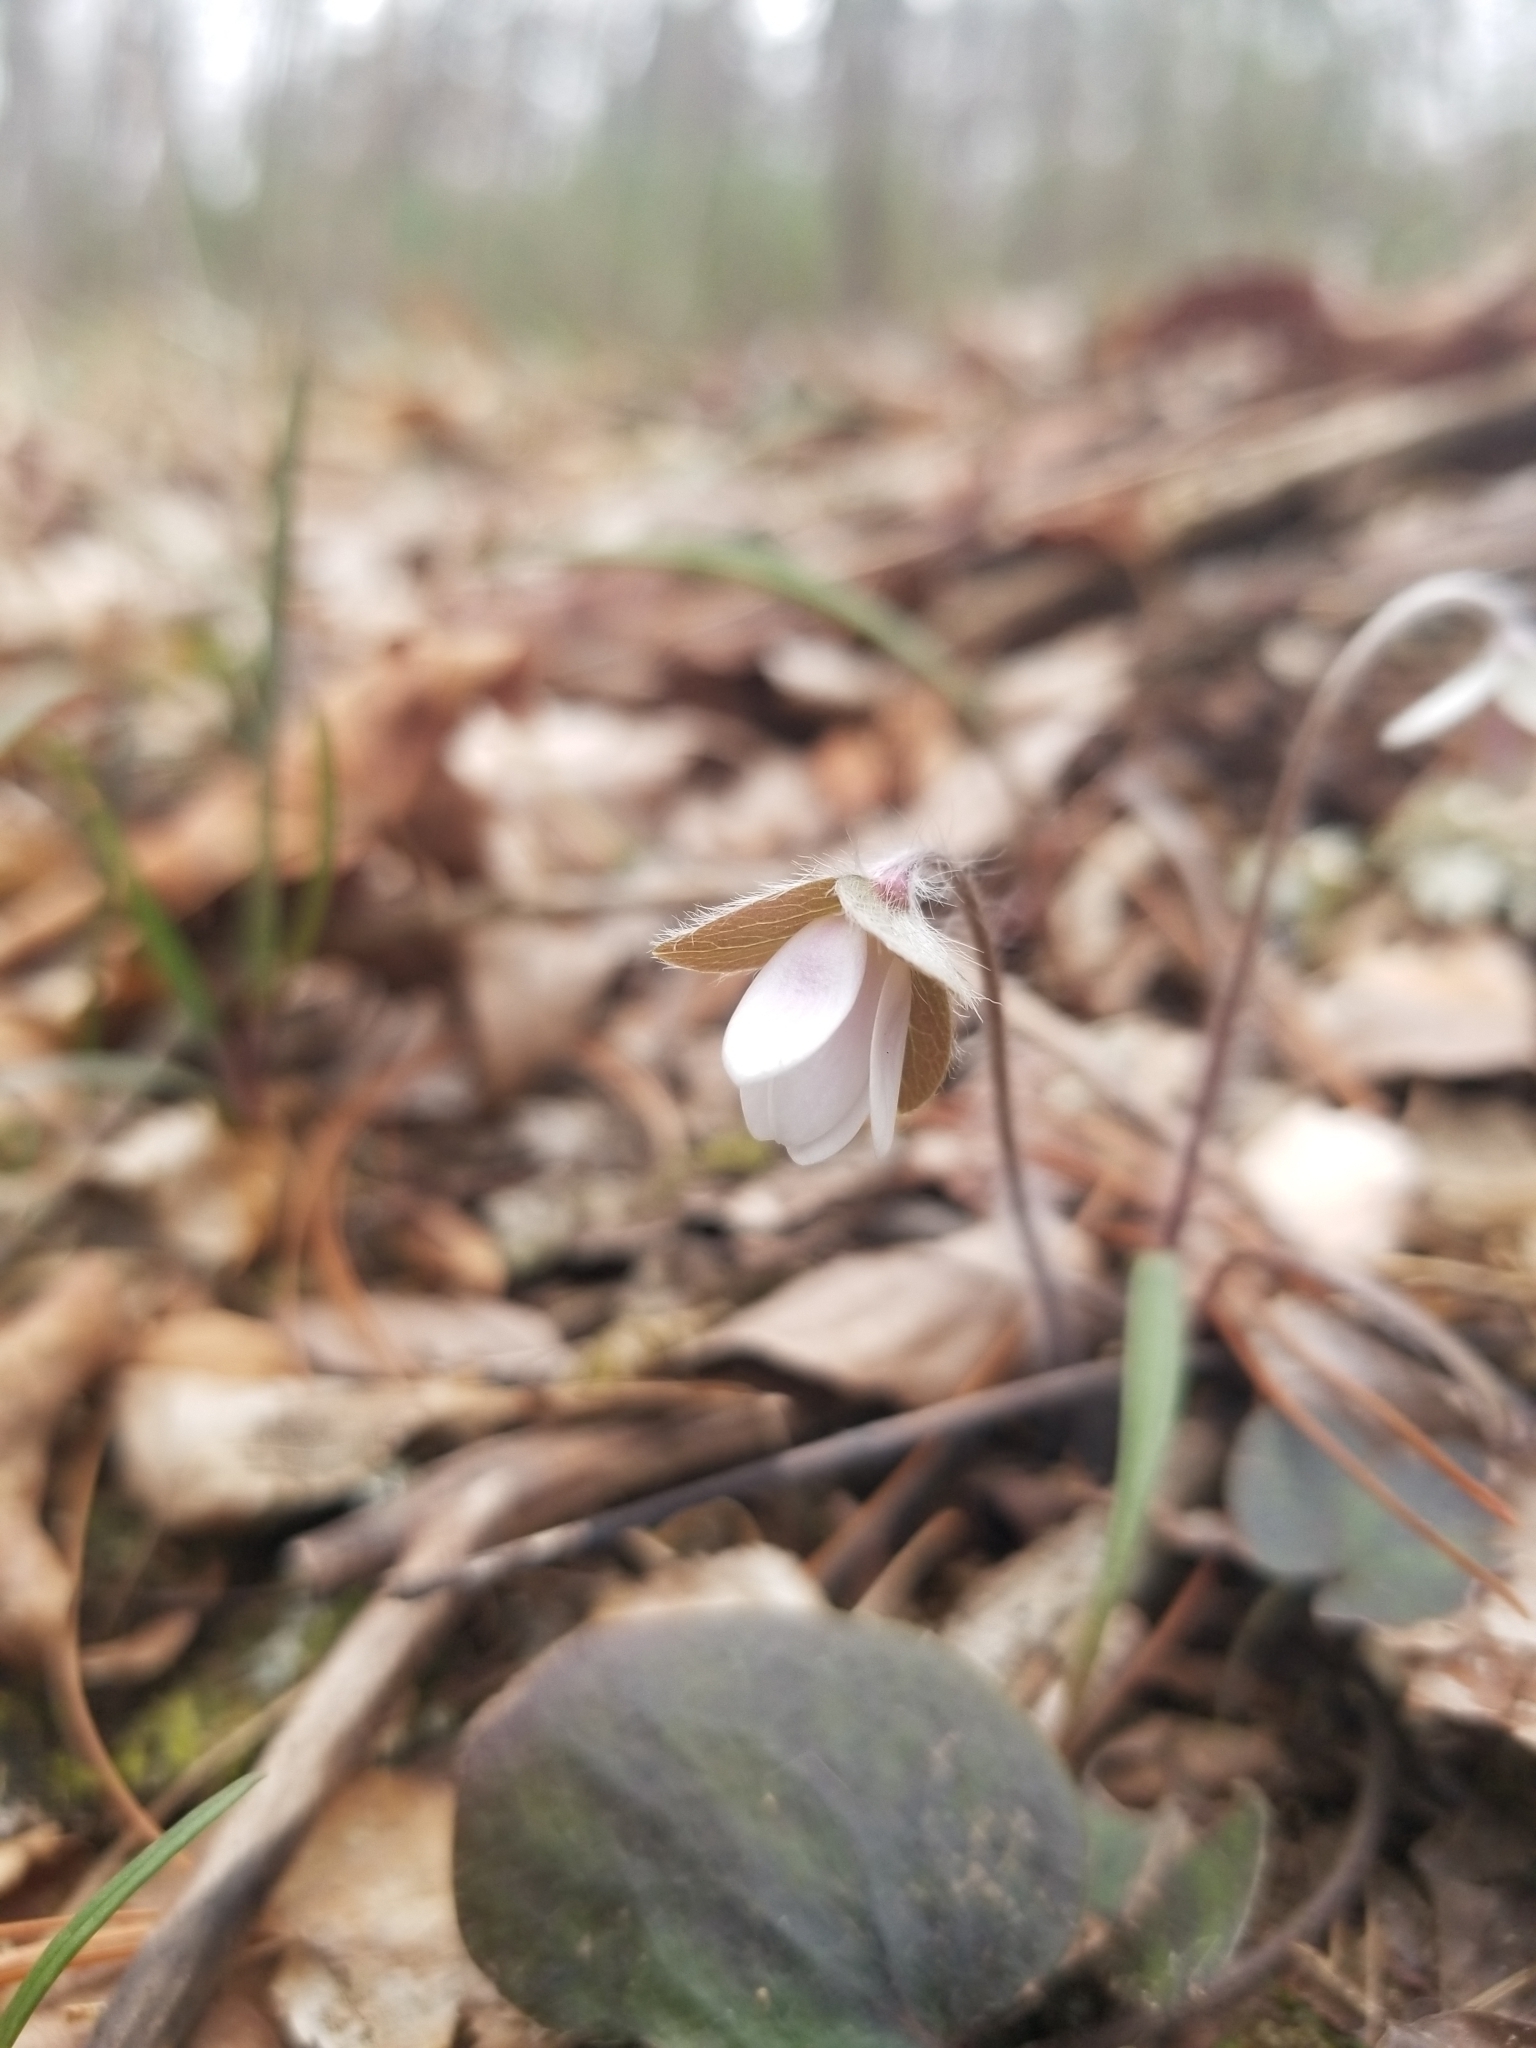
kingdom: Plantae
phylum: Tracheophyta
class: Magnoliopsida
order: Ranunculales
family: Ranunculaceae
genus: Hepatica
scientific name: Hepatica americana
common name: American hepatica
